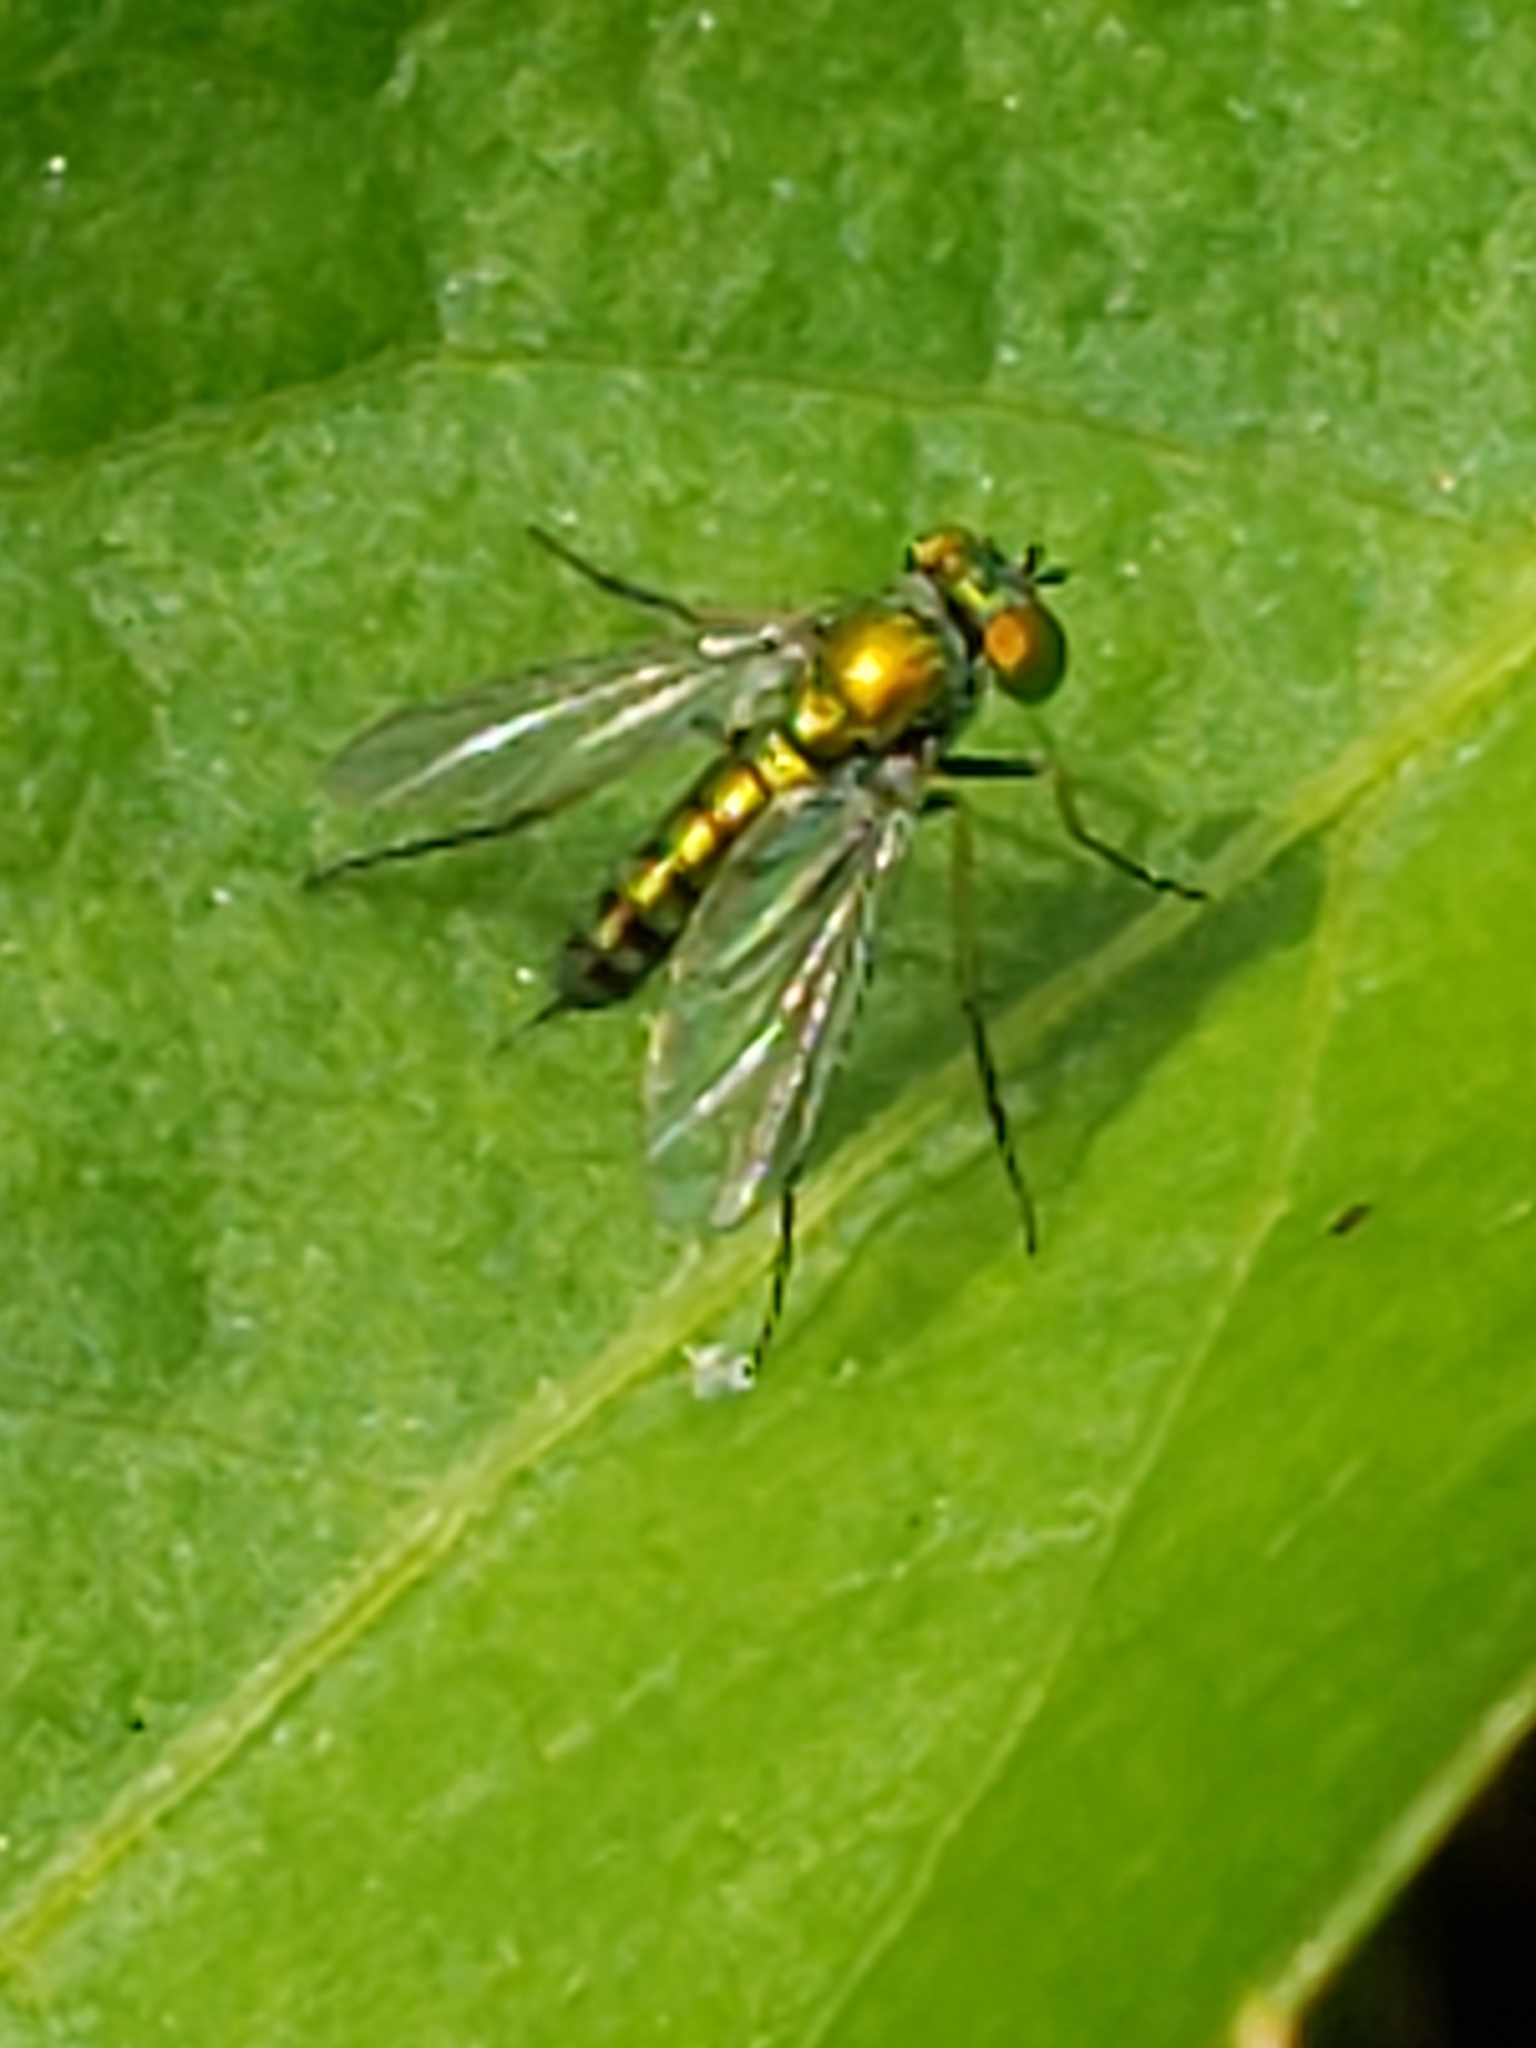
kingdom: Animalia
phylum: Arthropoda
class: Insecta
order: Diptera
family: Dolichopodidae
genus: Condylostylus
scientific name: Condylostylus caudatus
